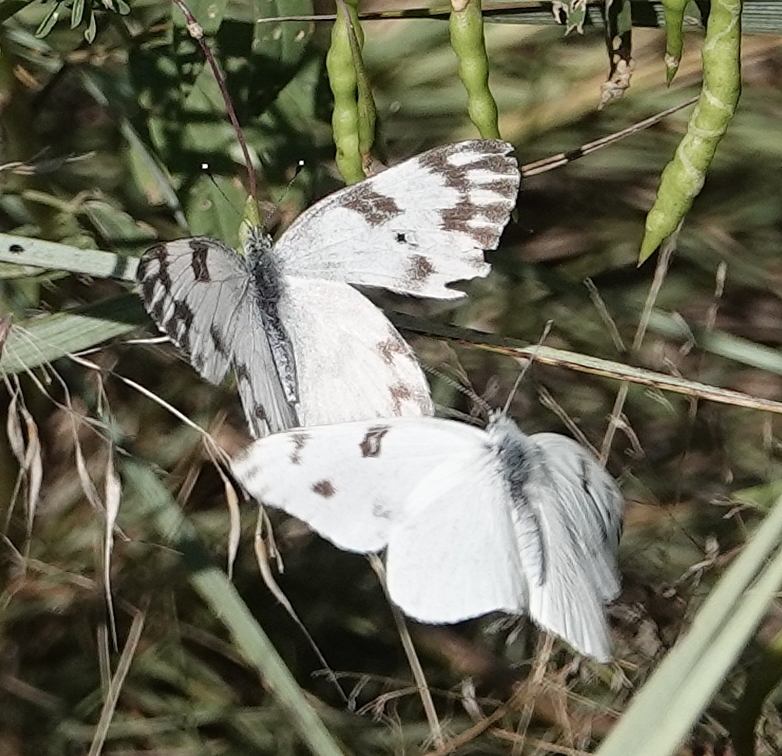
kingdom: Animalia
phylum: Arthropoda
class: Insecta
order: Lepidoptera
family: Pieridae
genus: Pontia
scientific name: Pontia protodice
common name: Checkered white
